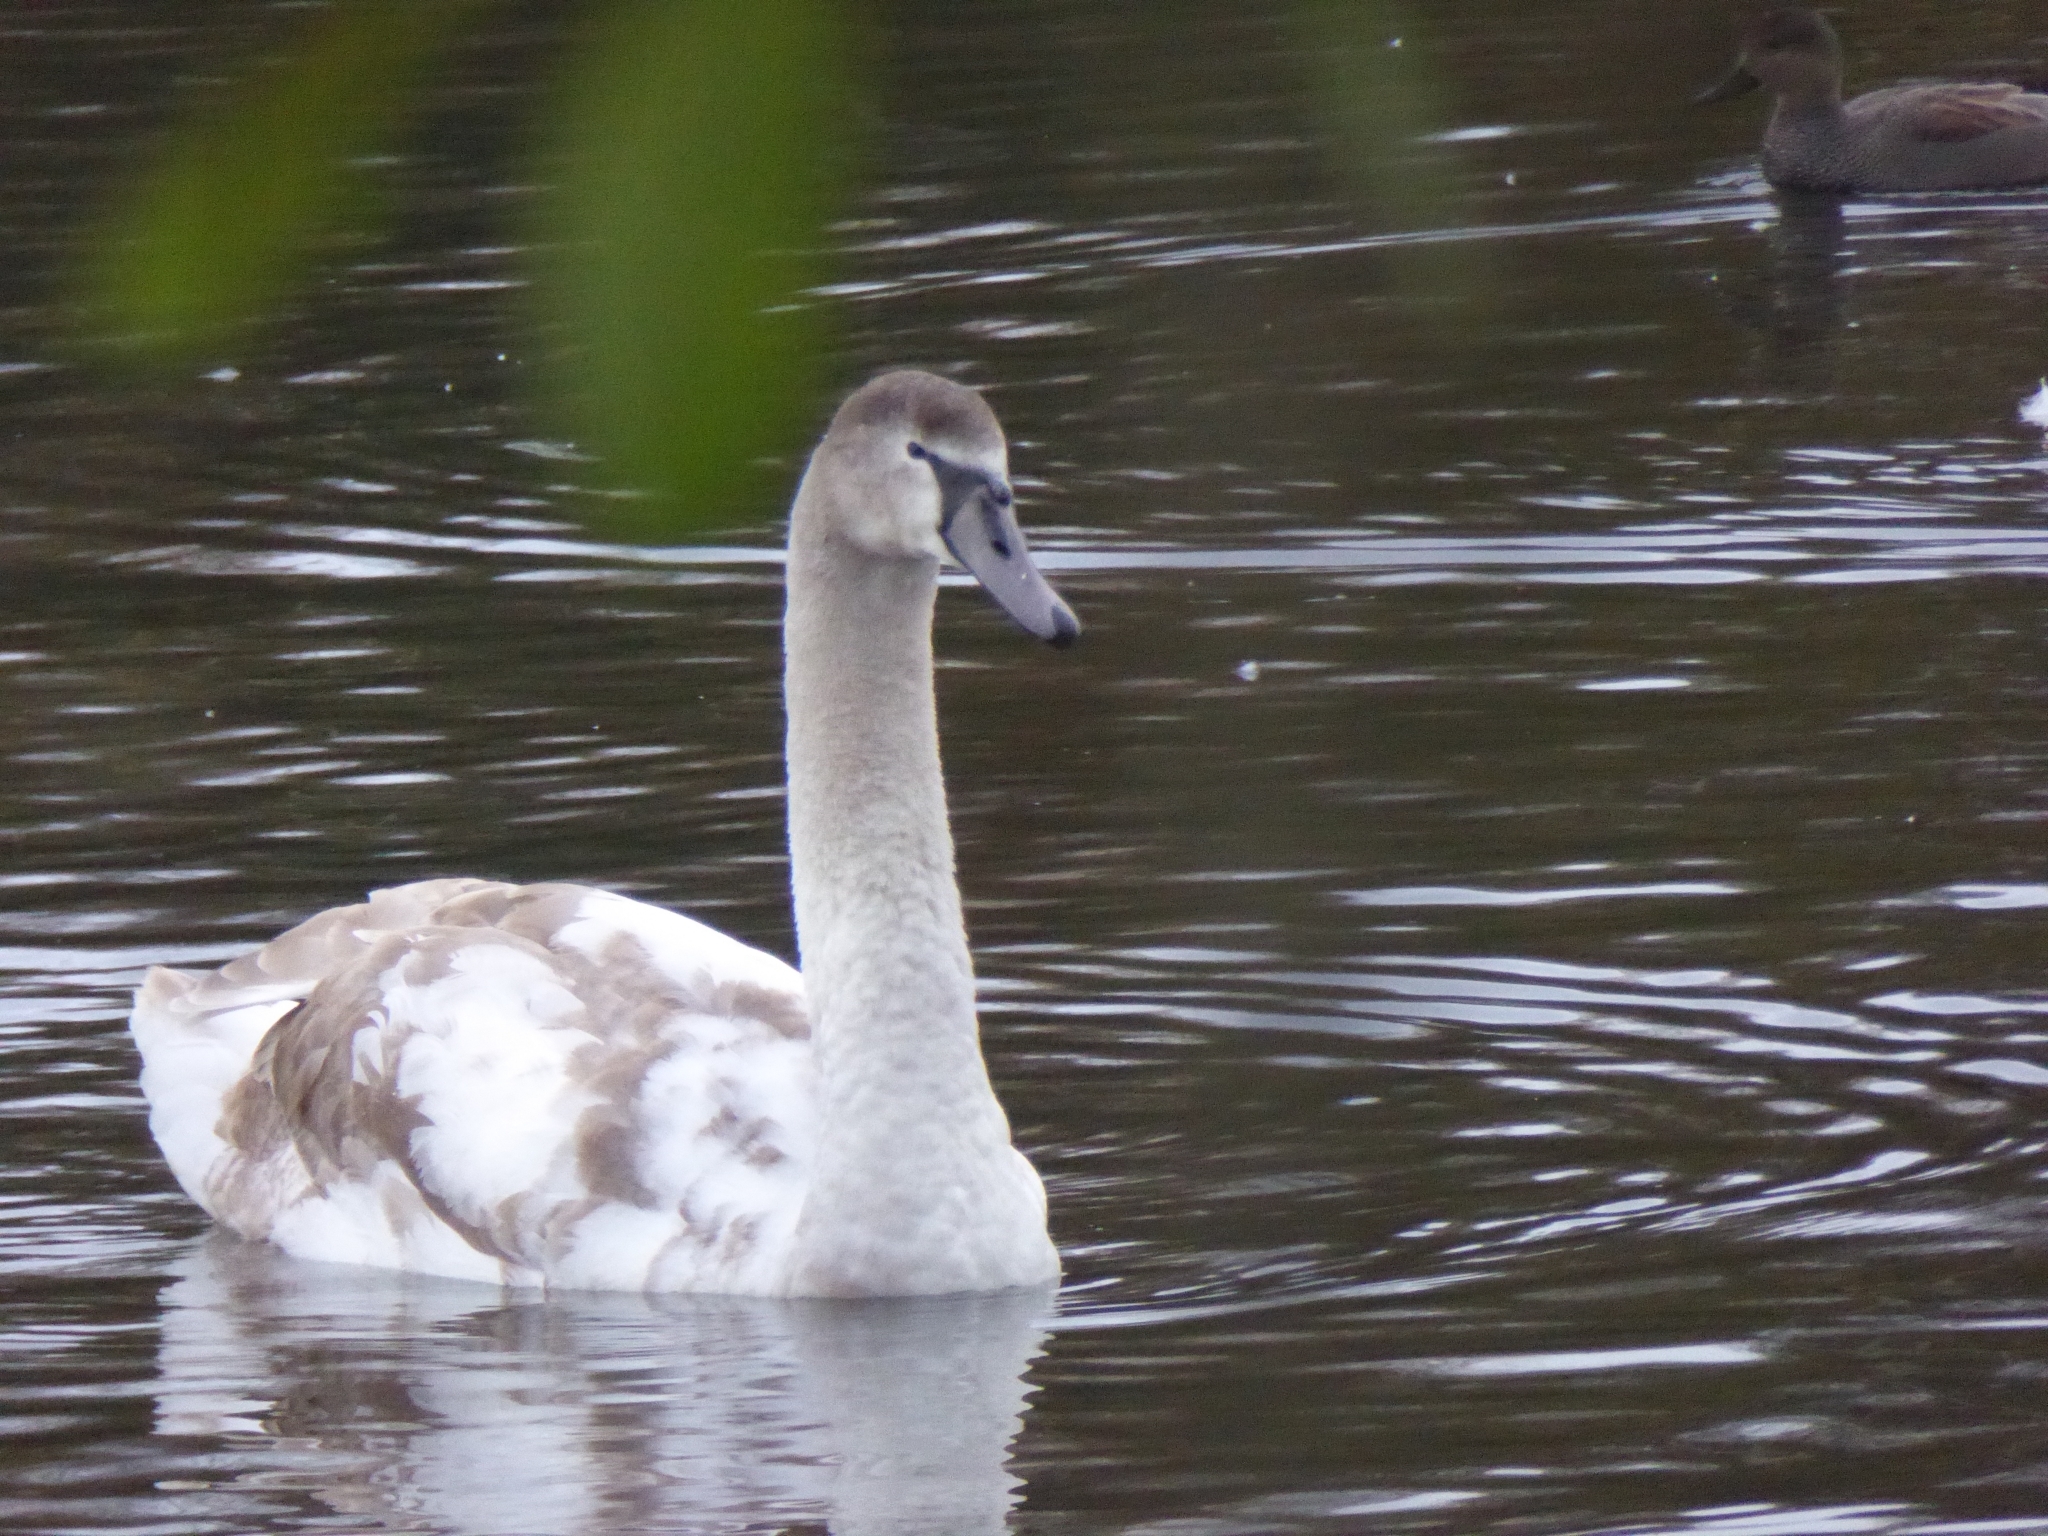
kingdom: Animalia
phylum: Chordata
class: Aves
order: Anseriformes
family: Anatidae
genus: Cygnus
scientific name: Cygnus olor
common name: Mute swan
